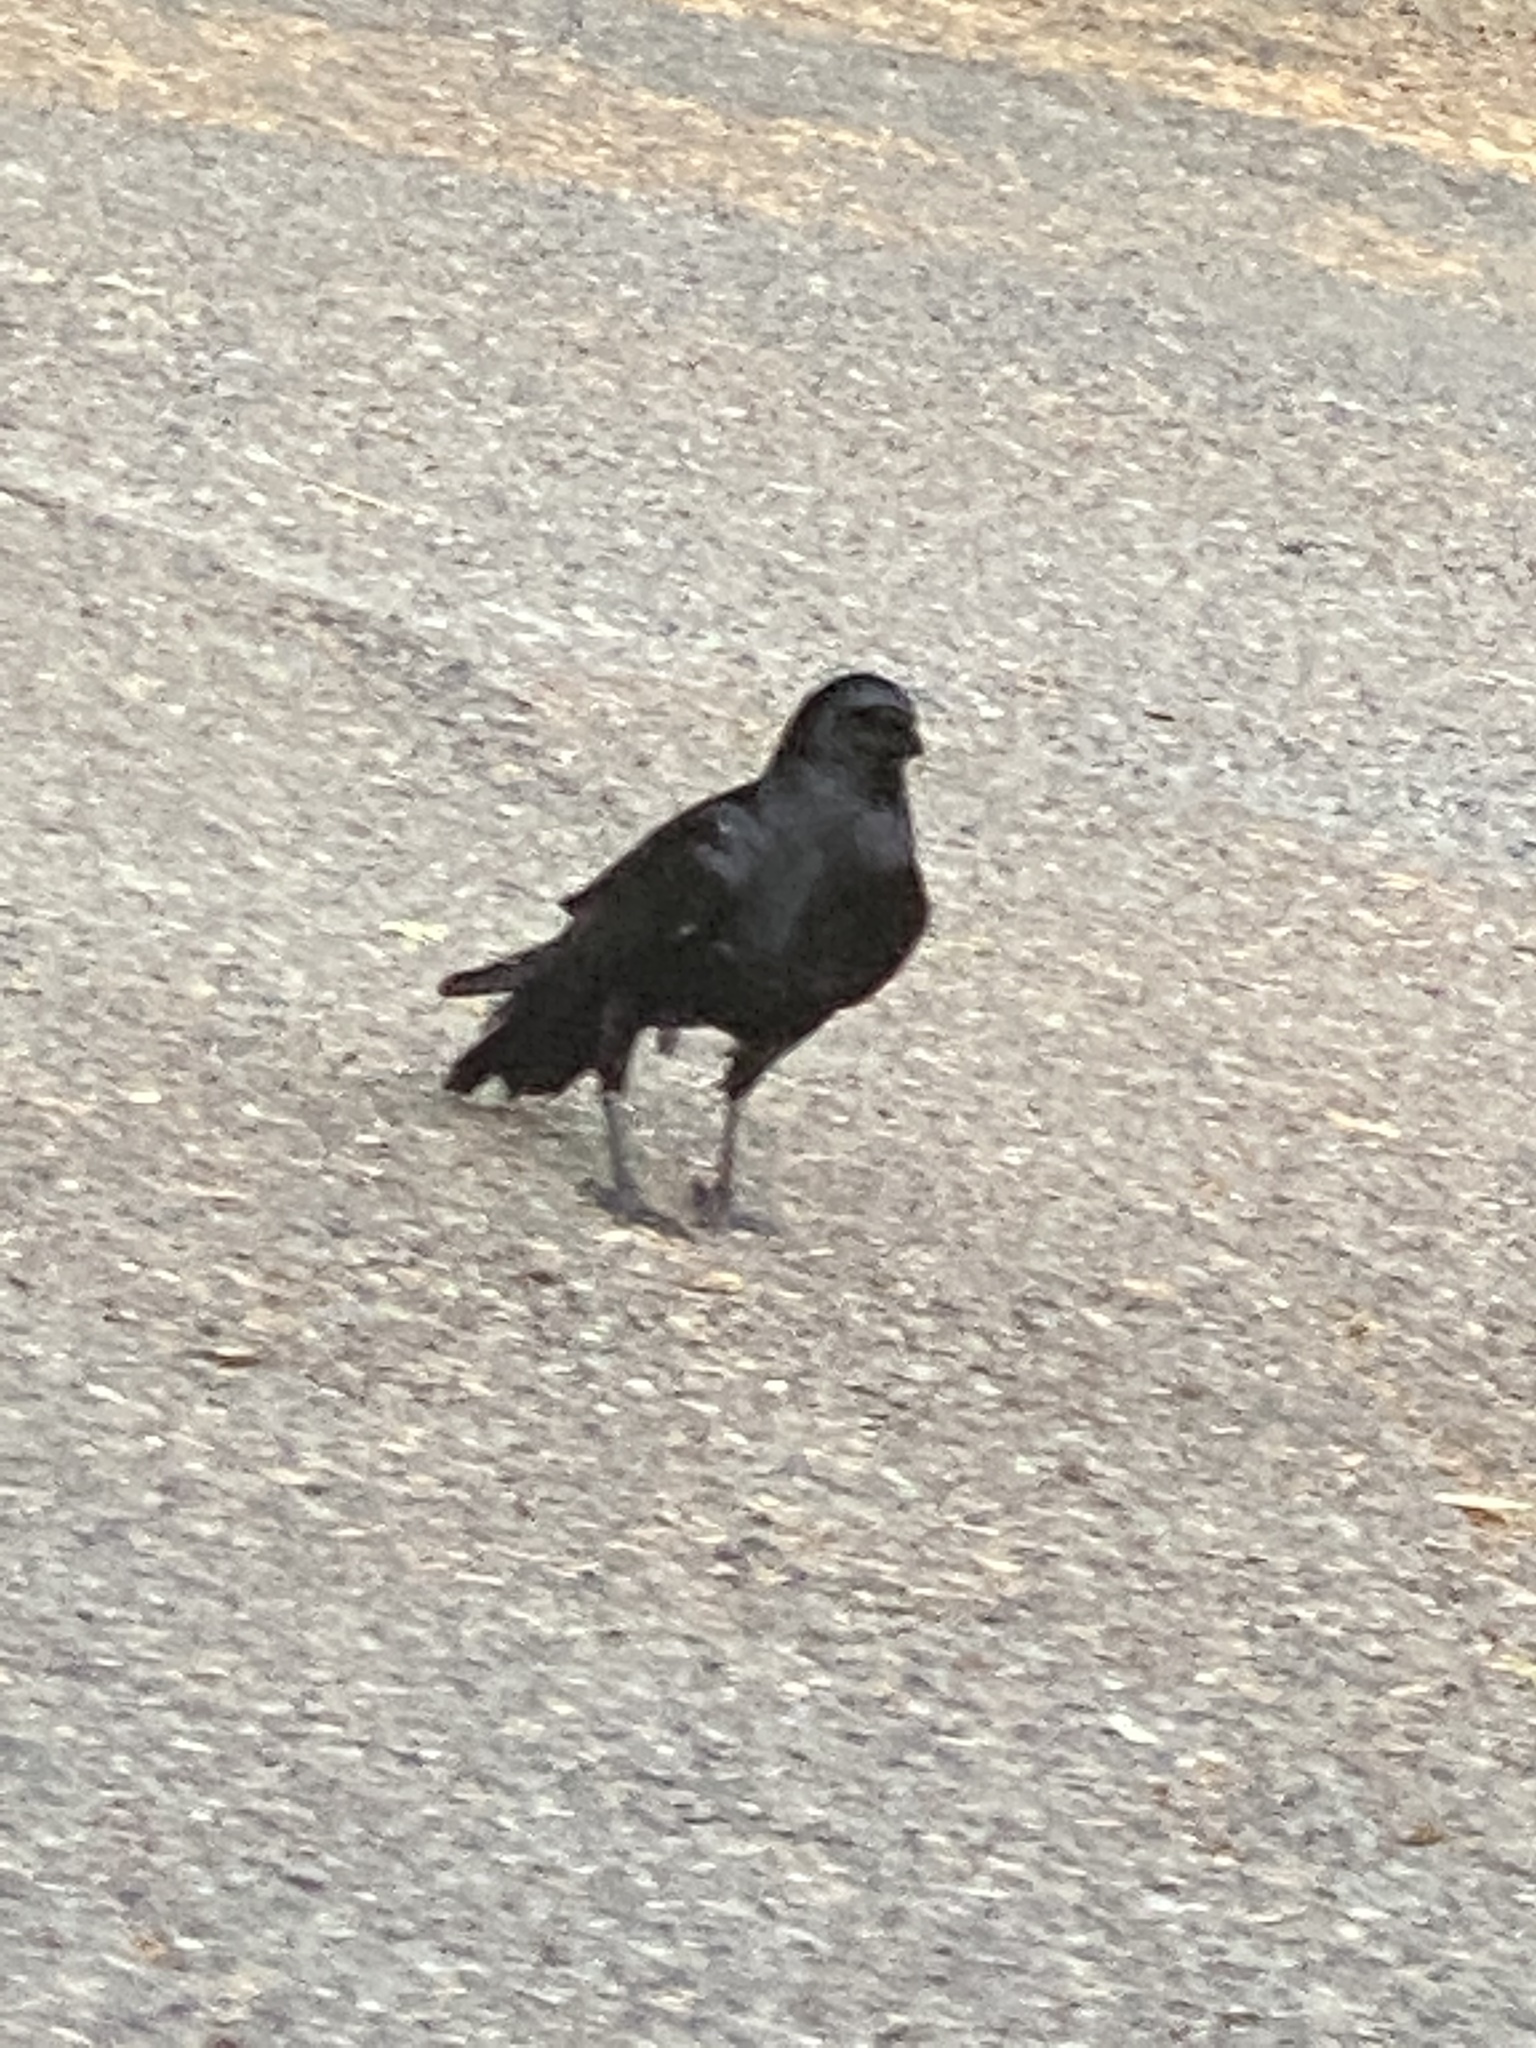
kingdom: Animalia
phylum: Chordata
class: Aves
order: Passeriformes
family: Corvidae
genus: Corvus
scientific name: Corvus brachyrhynchos
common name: American crow
